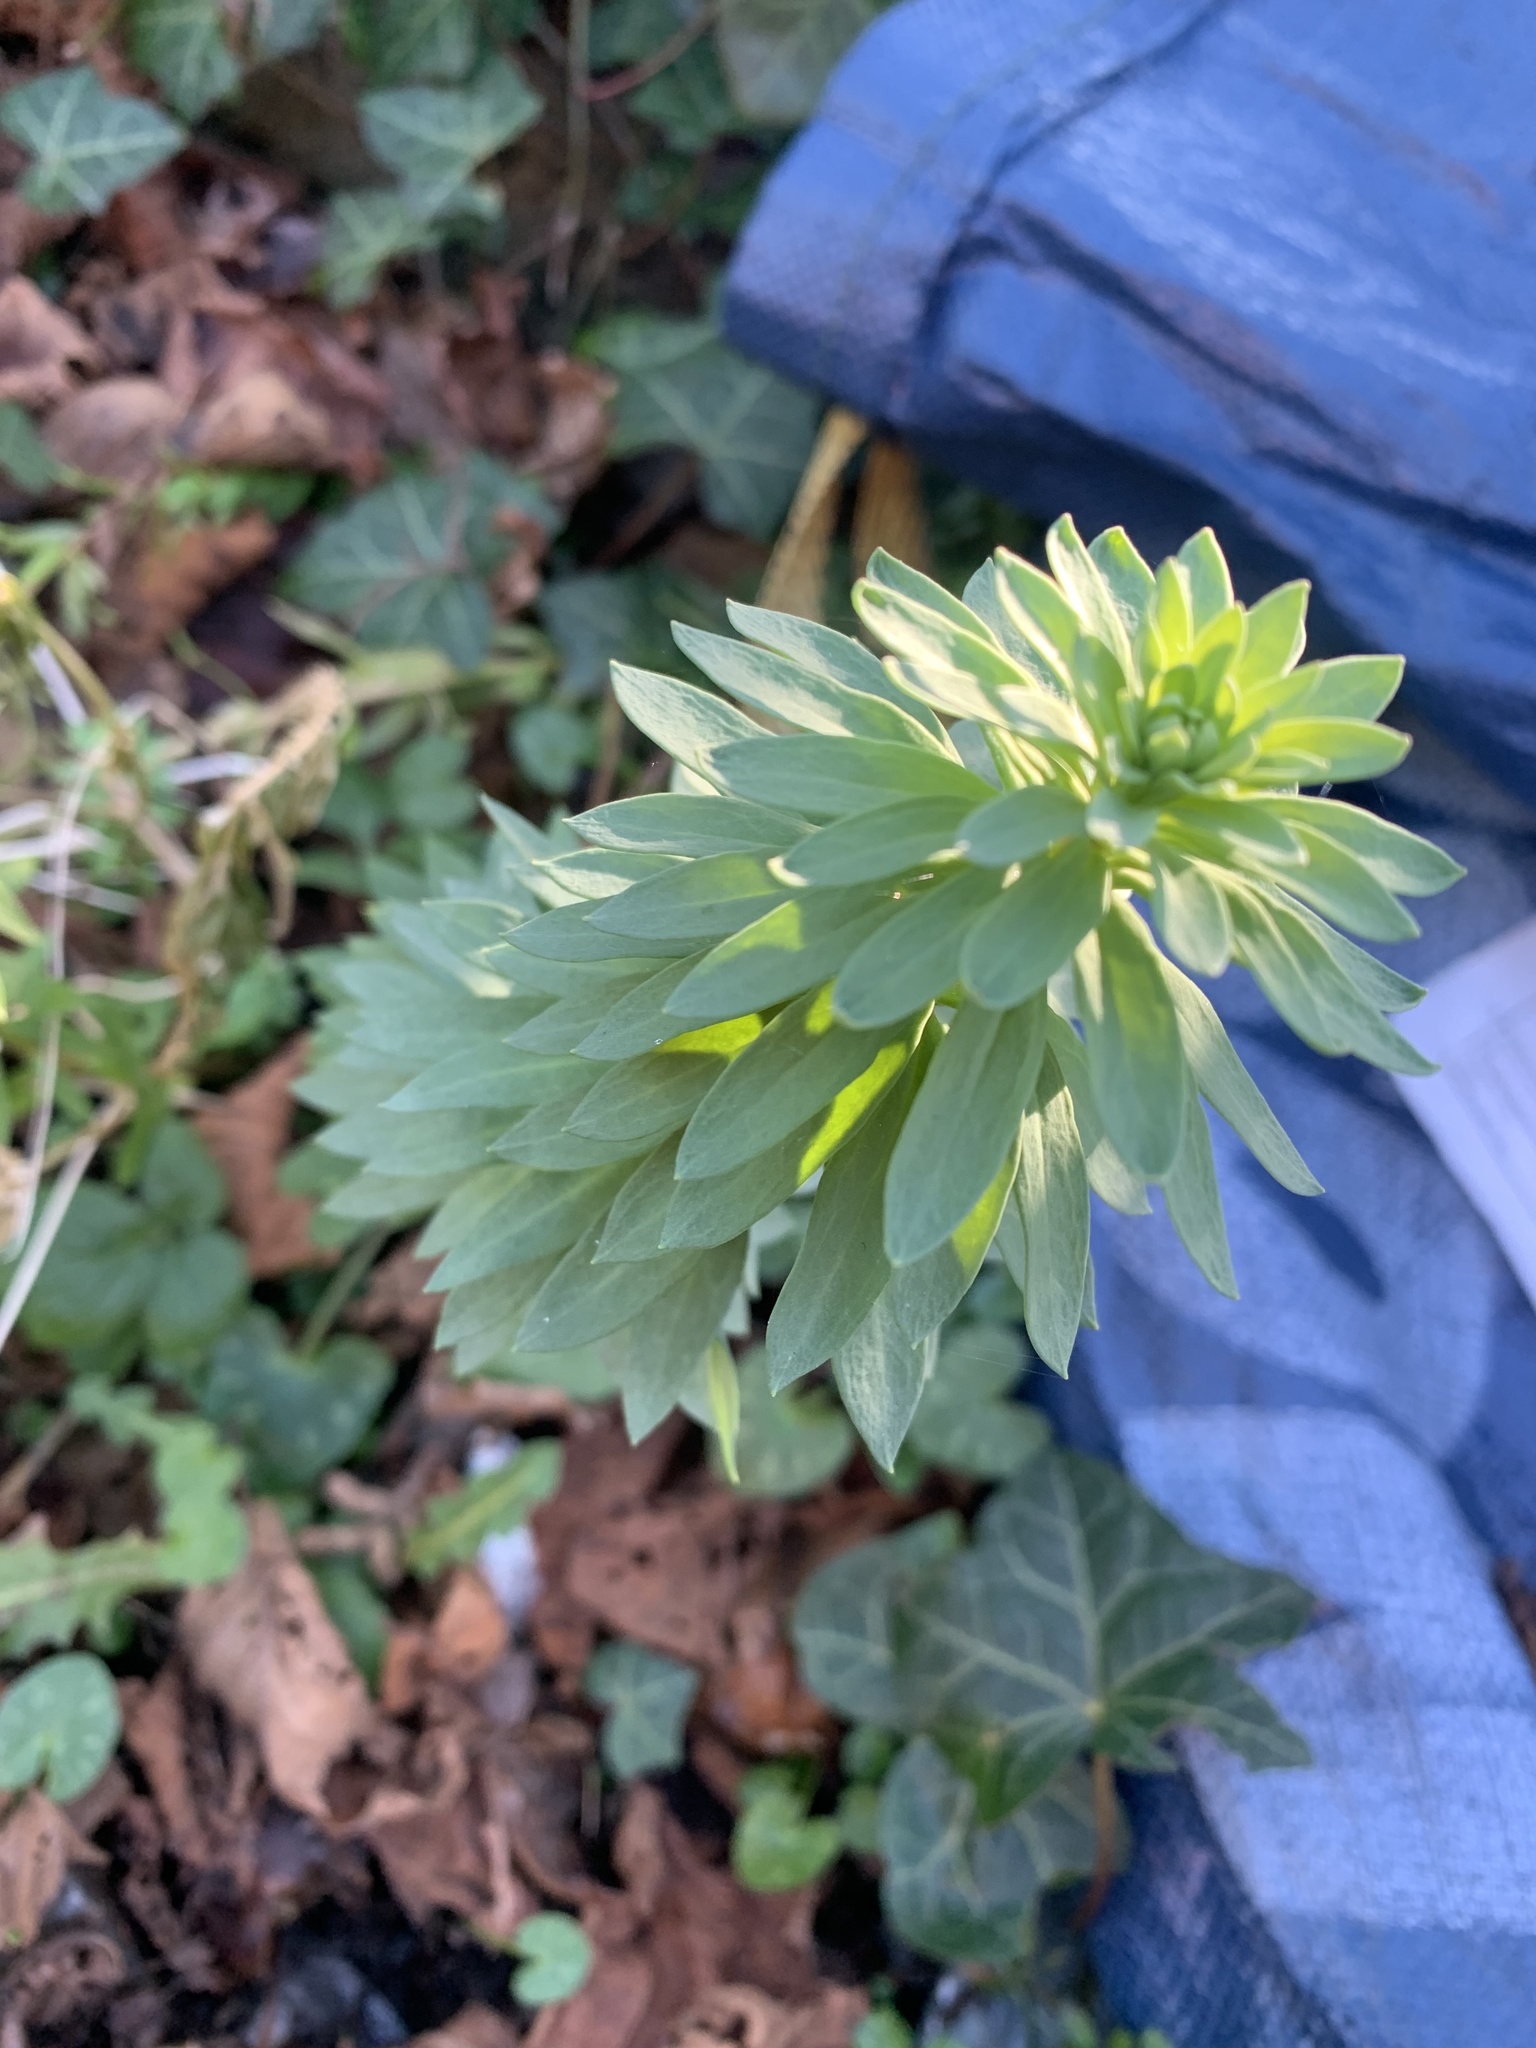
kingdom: Plantae
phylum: Tracheophyta
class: Magnoliopsida
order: Malpighiales
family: Euphorbiaceae
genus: Euphorbia
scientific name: Euphorbia characias
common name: Mediterranean spurge
